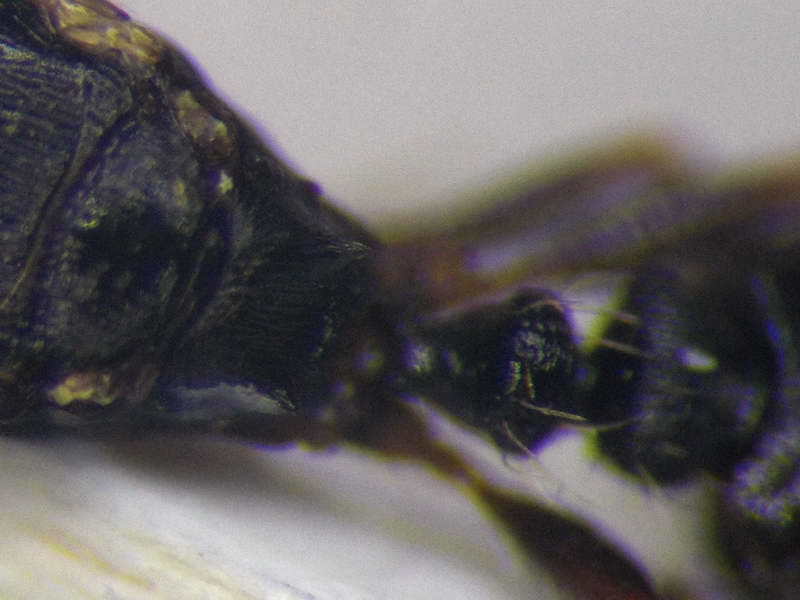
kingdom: Animalia
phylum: Arthropoda
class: Insecta
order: Hymenoptera
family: Formicidae
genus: Tetramorium
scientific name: Tetramorium chefketi
